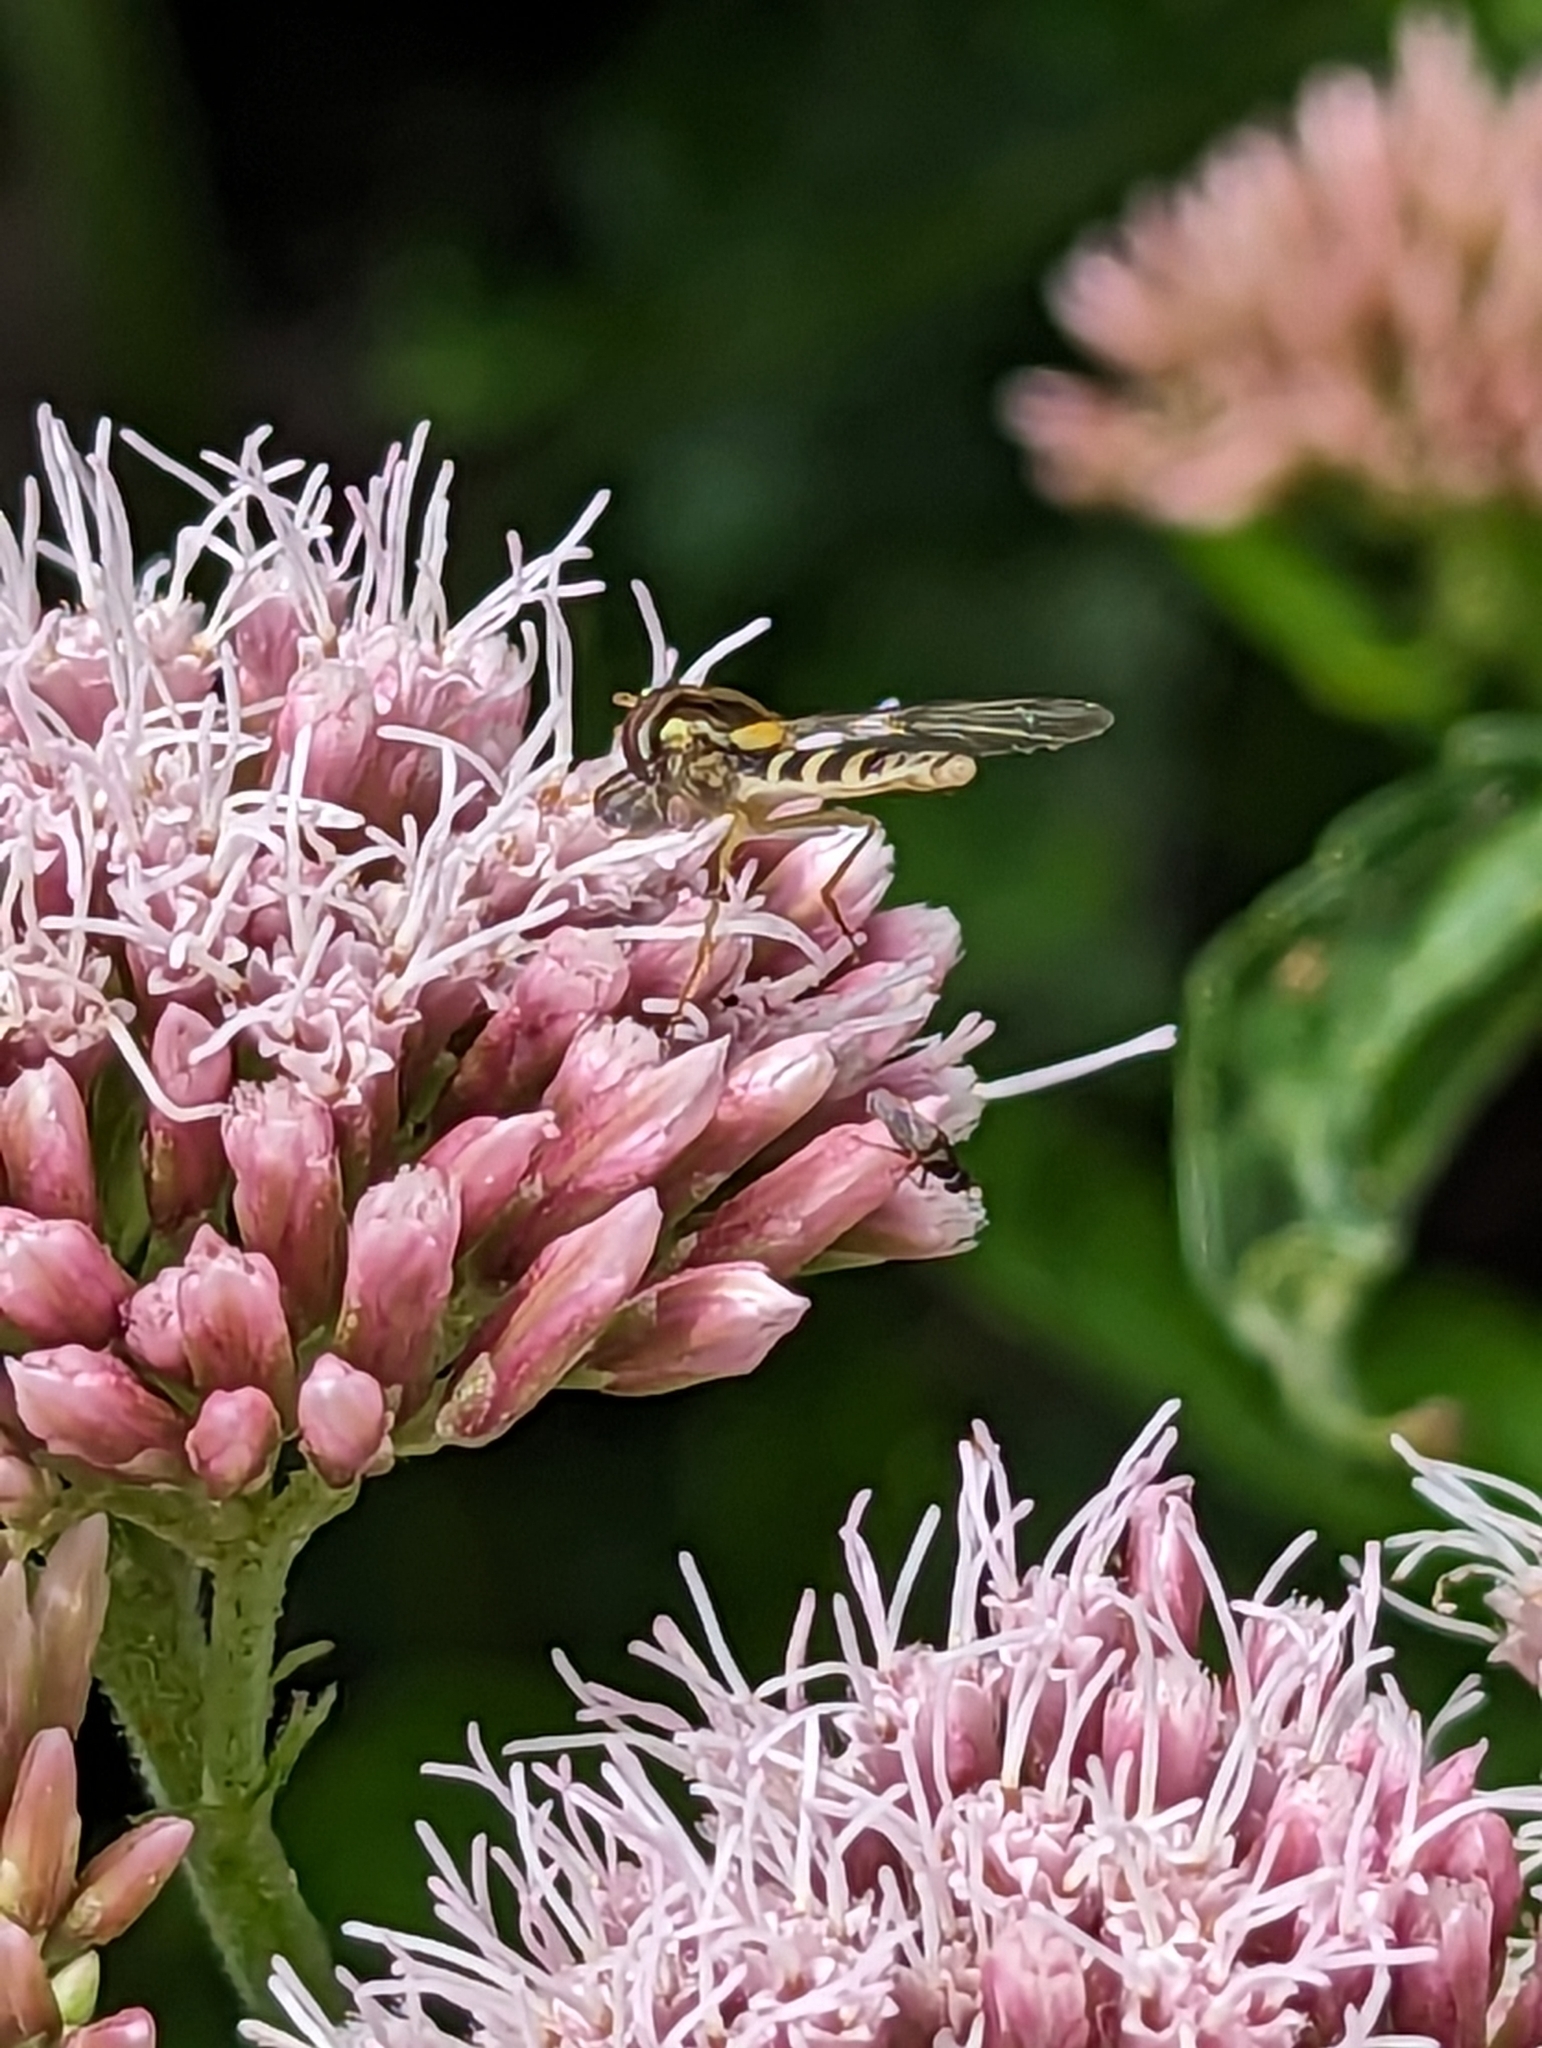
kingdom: Animalia
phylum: Arthropoda
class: Insecta
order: Diptera
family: Syrphidae
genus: Sphaerophoria
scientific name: Sphaerophoria
